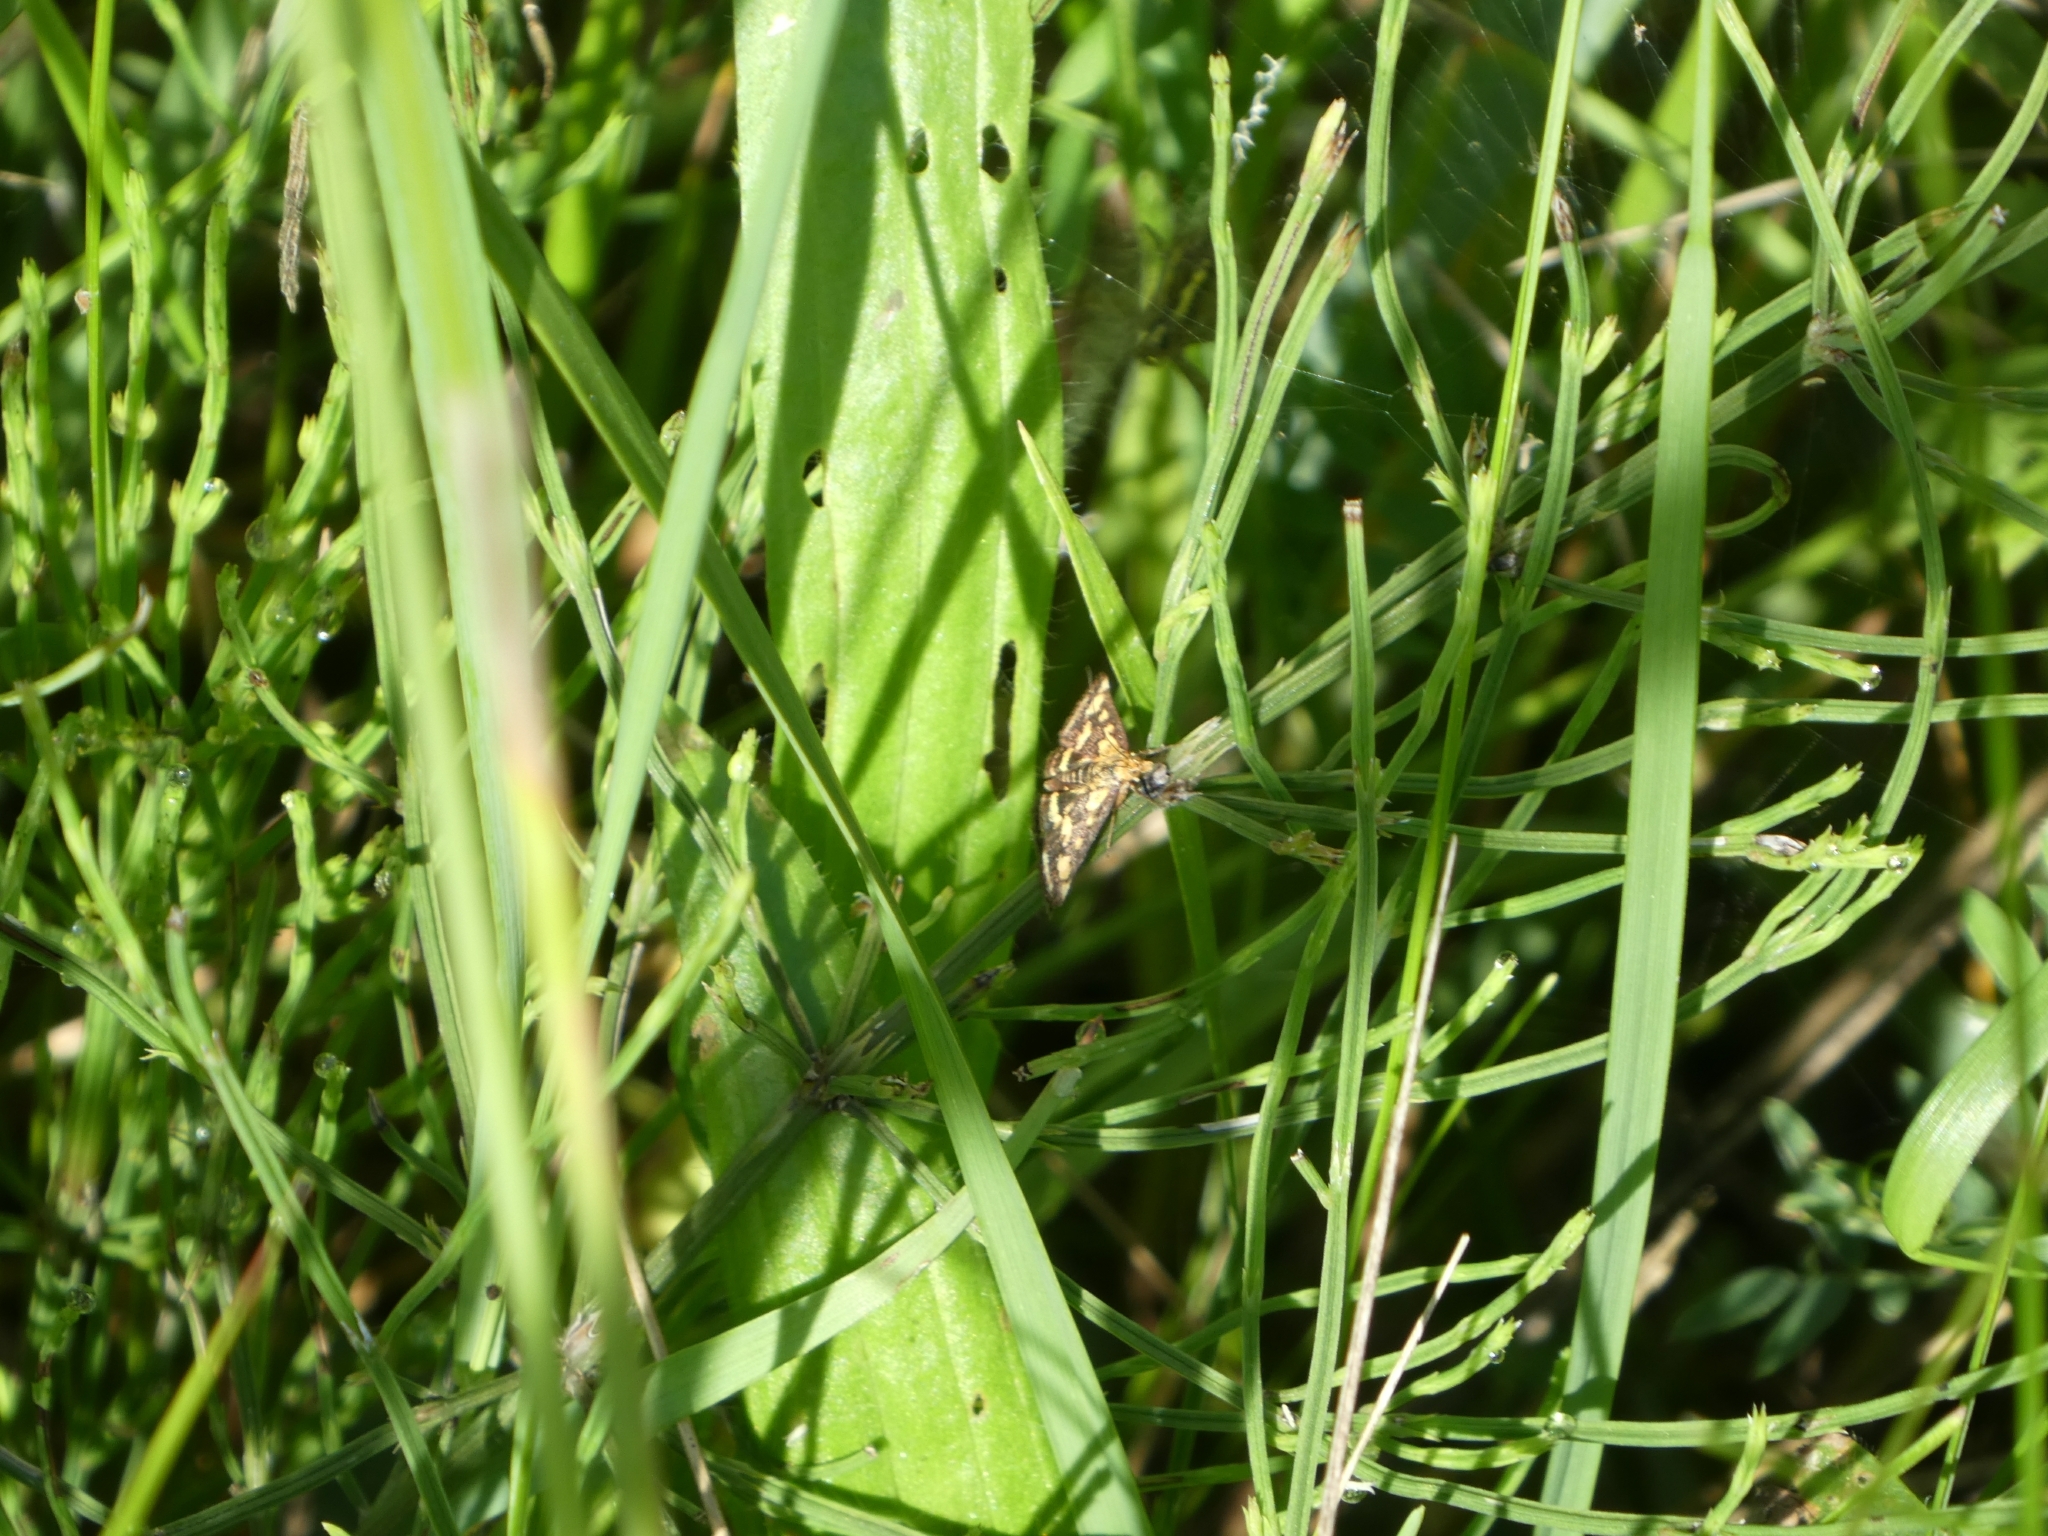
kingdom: Animalia
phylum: Arthropoda
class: Insecta
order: Lepidoptera
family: Crambidae
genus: Pyrausta
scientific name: Pyrausta purpuralis
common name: Common purple & gold
